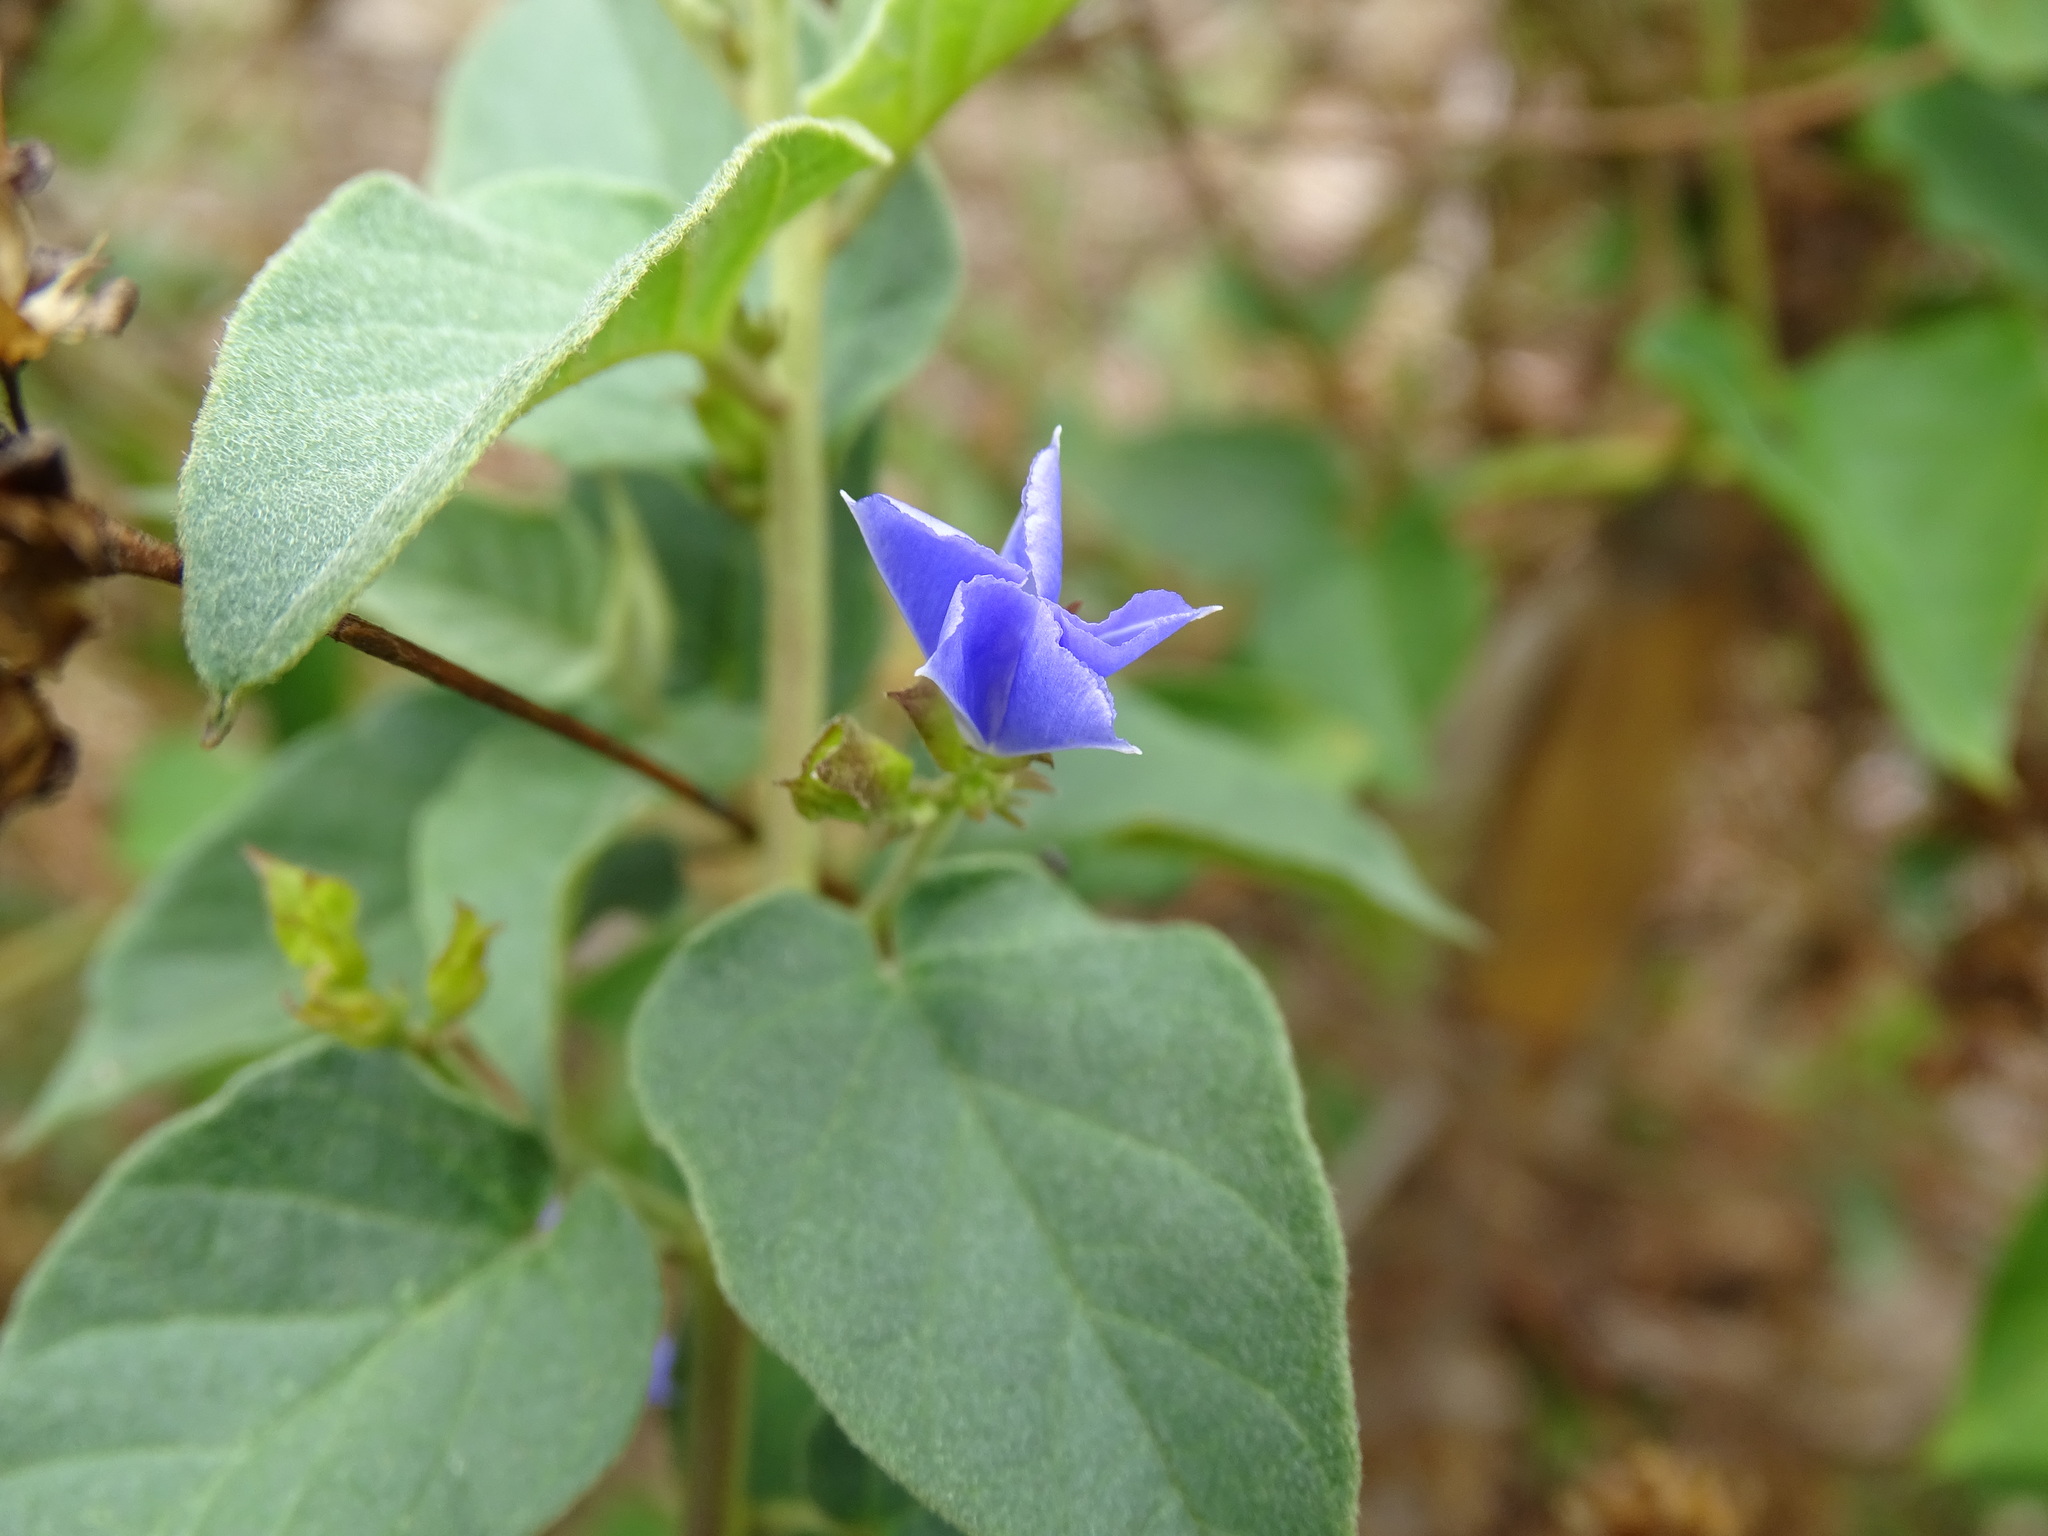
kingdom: Plantae
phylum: Tracheophyta
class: Magnoliopsida
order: Solanales
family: Convolvulaceae
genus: Jacquemontia
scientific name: Jacquemontia pentanthos
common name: Skyblue clustervine
